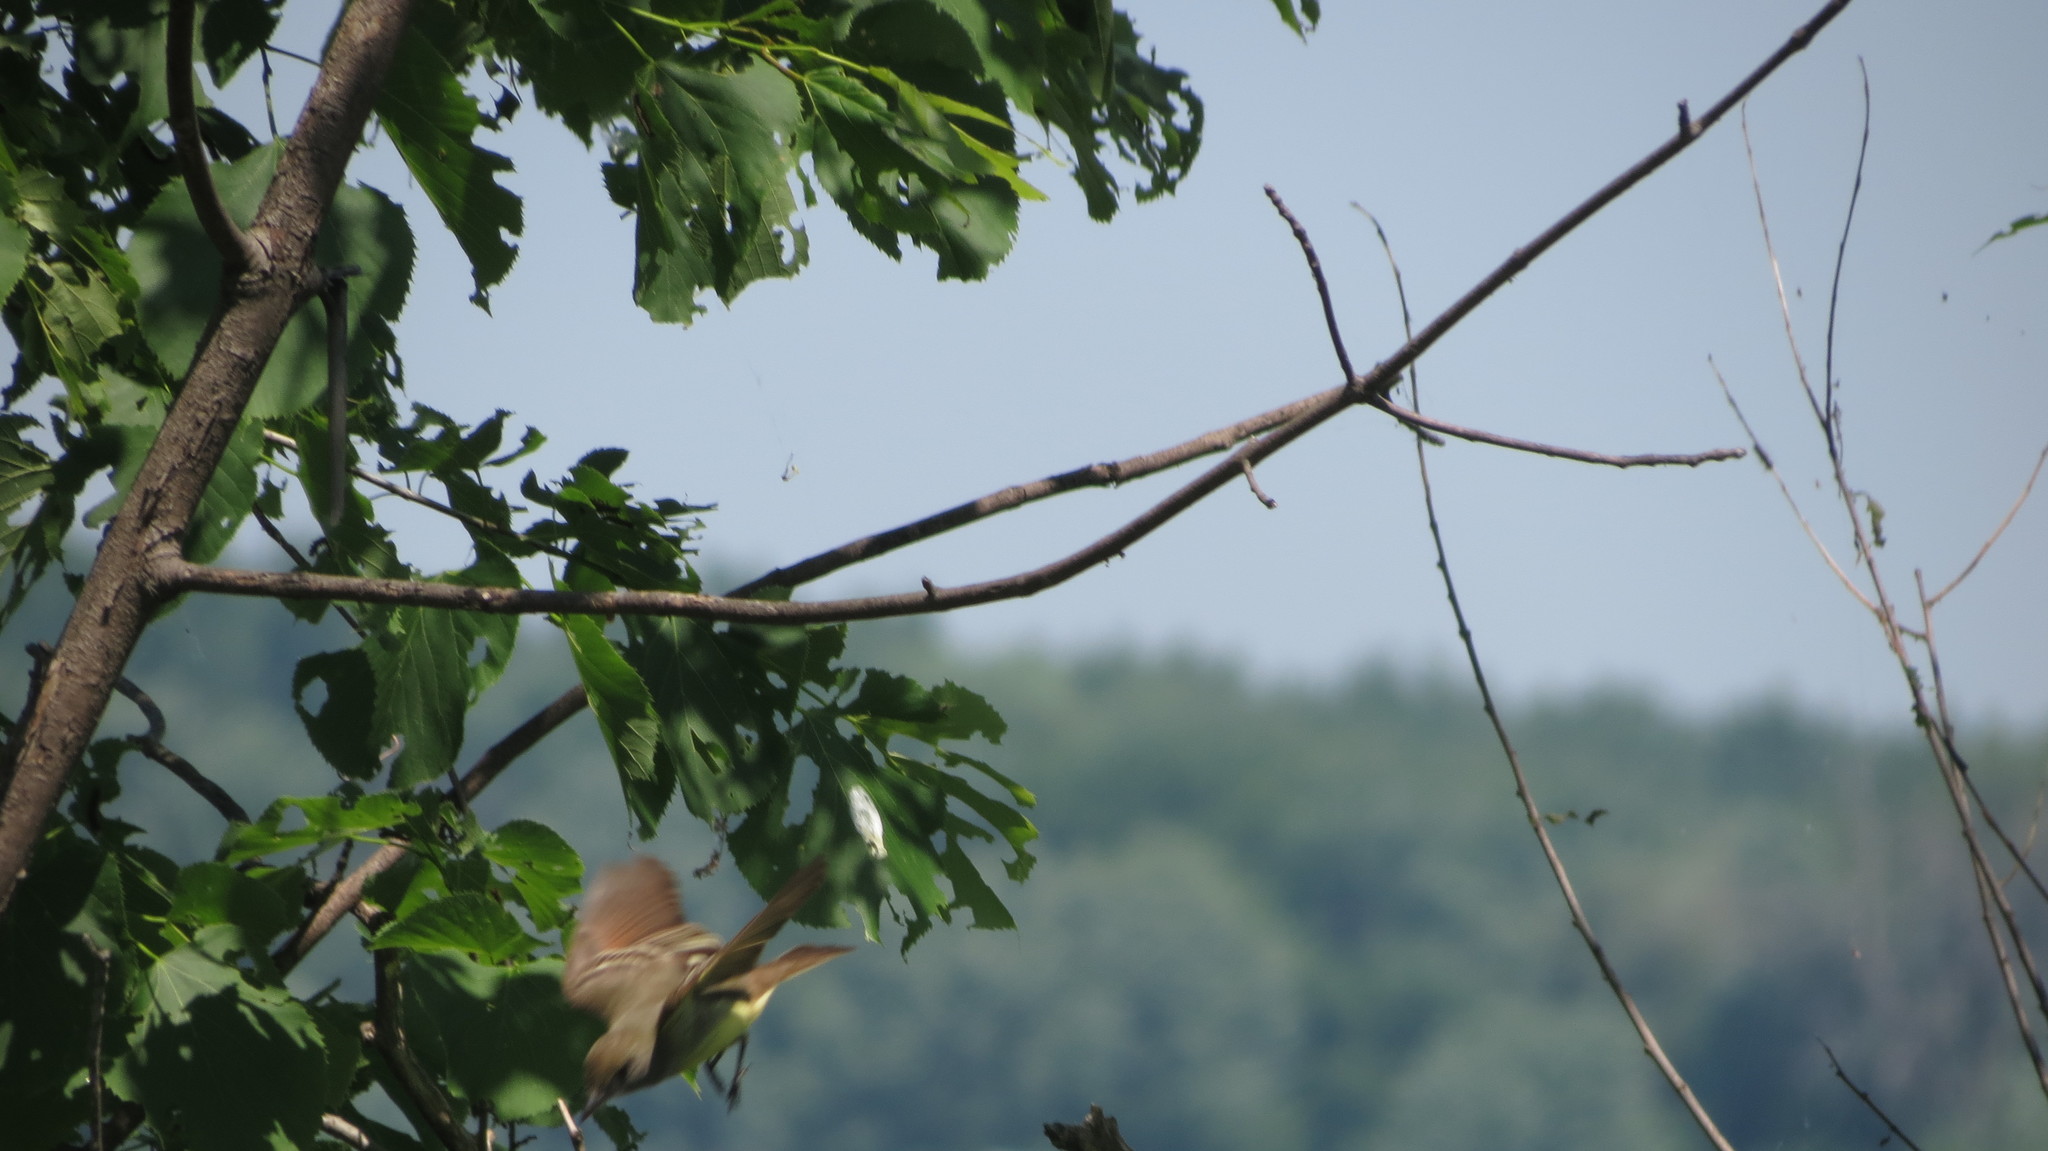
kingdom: Animalia
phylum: Chordata
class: Aves
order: Passeriformes
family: Tyrannidae
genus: Myiarchus
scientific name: Myiarchus crinitus
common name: Great crested flycatcher
